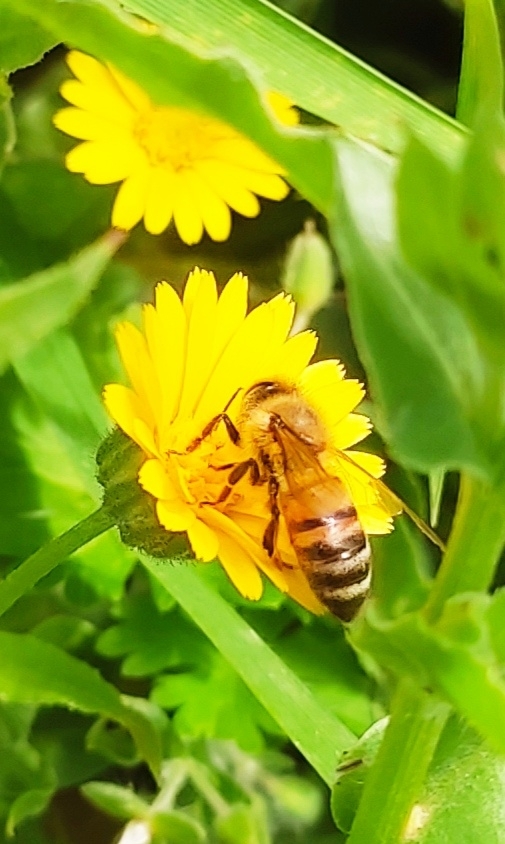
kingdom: Animalia
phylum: Arthropoda
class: Insecta
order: Hymenoptera
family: Apidae
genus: Apis
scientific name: Apis mellifera
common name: Honey bee
